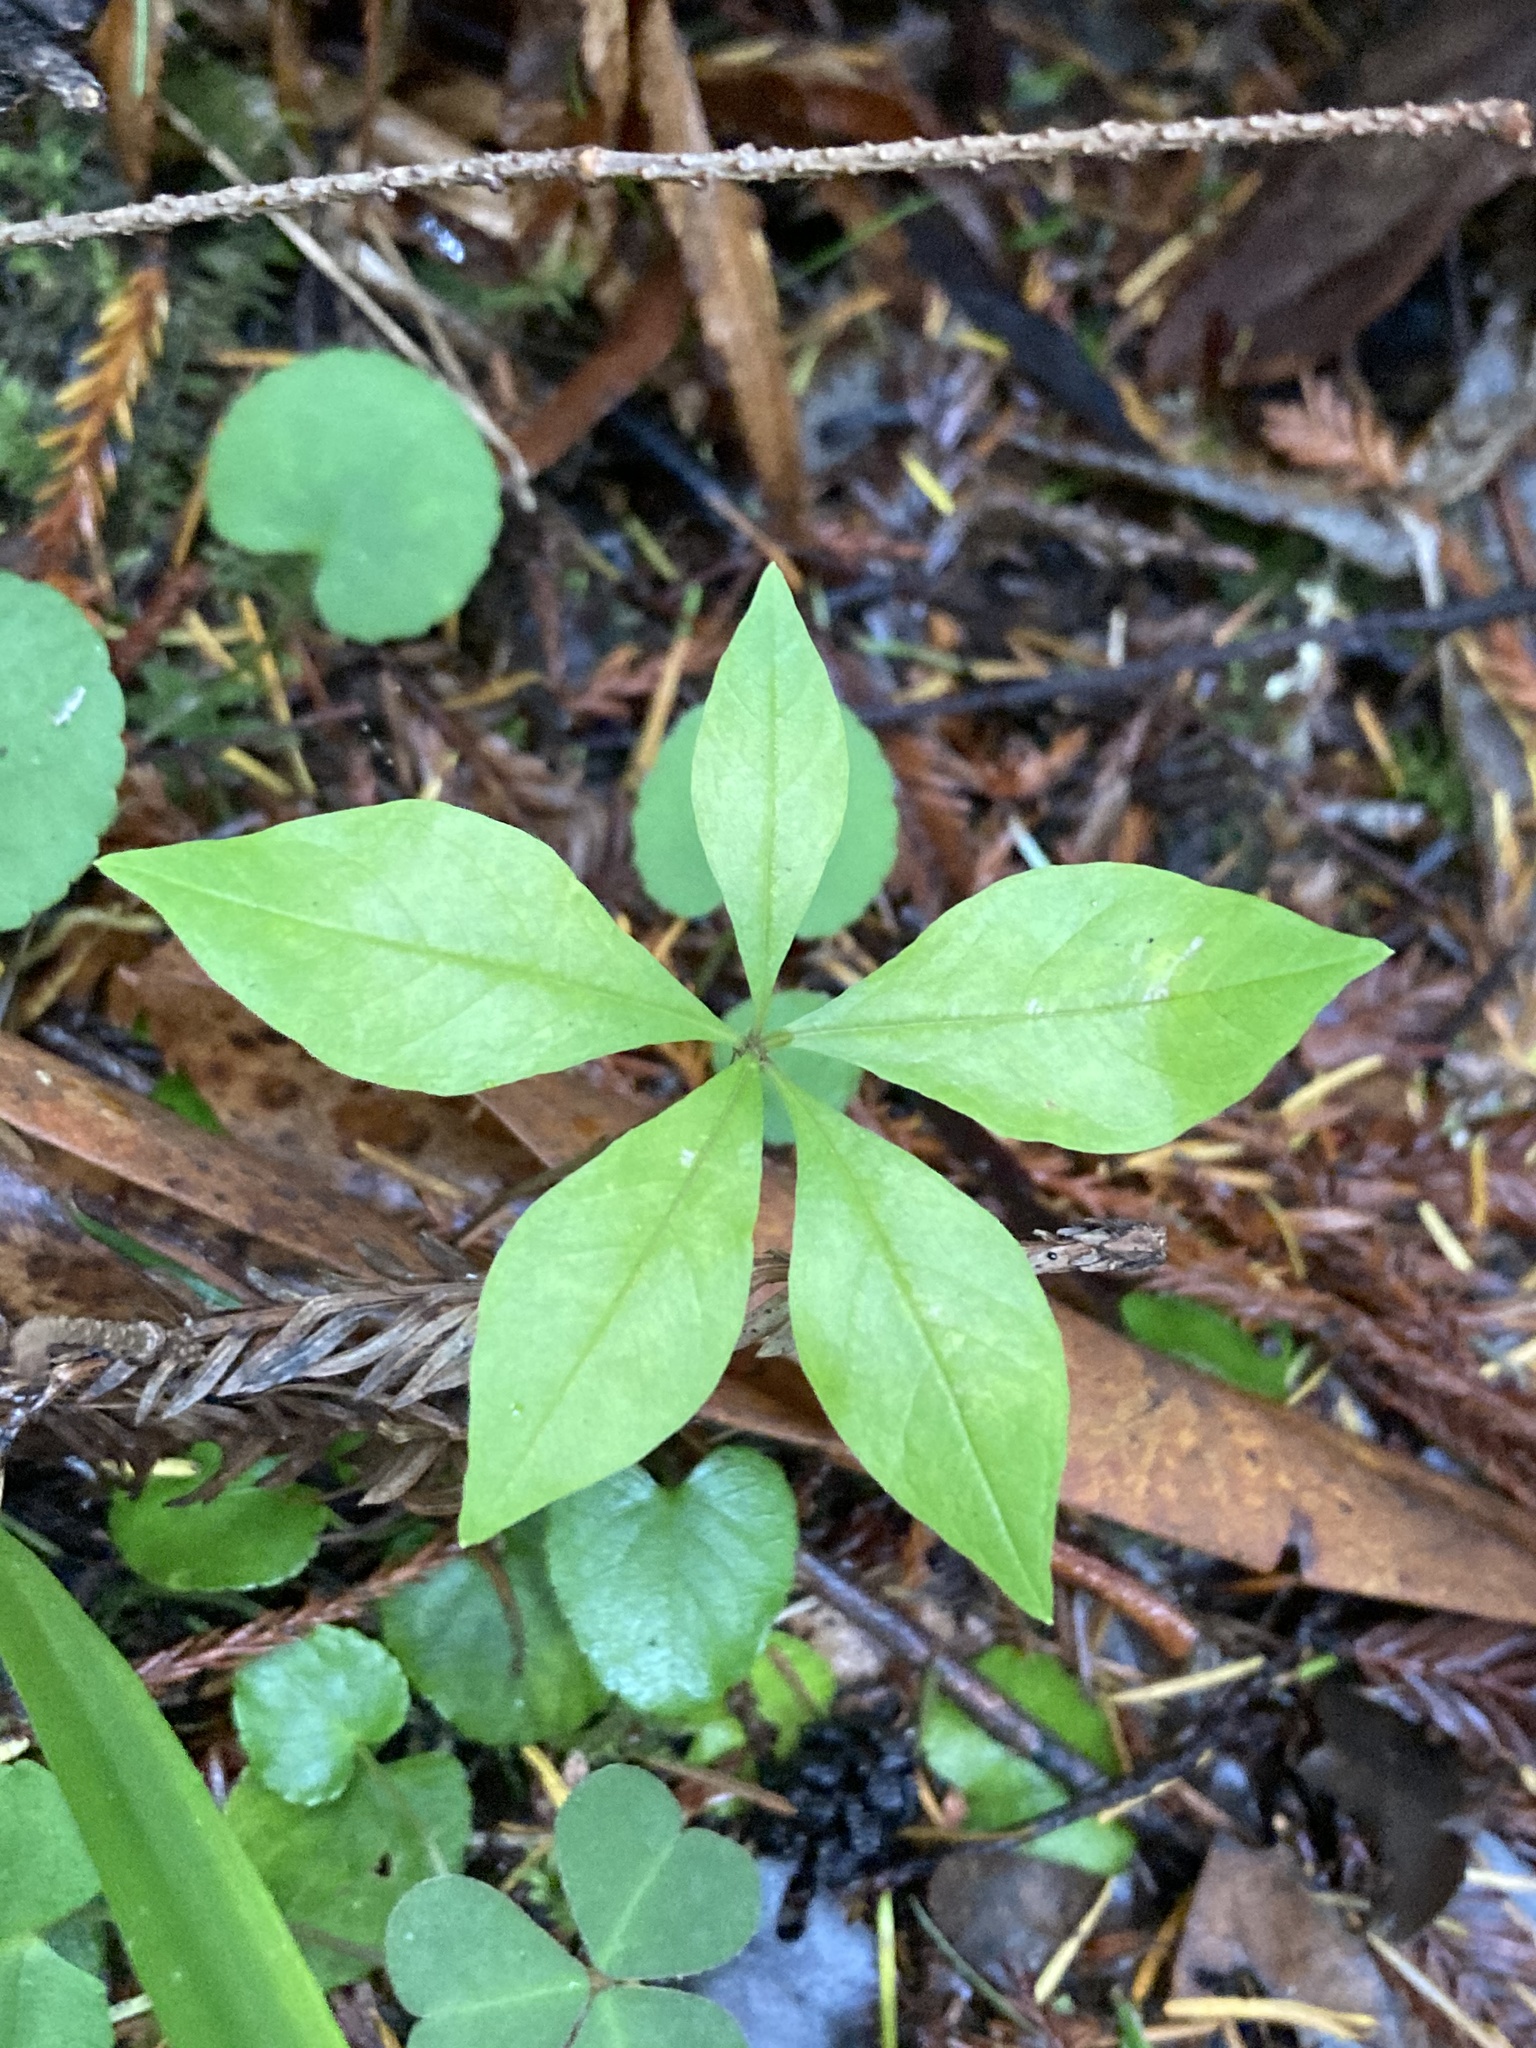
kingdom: Plantae
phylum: Tracheophyta
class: Magnoliopsida
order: Ericales
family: Primulaceae
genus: Lysimachia
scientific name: Lysimachia latifolia
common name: Pacific starflower
